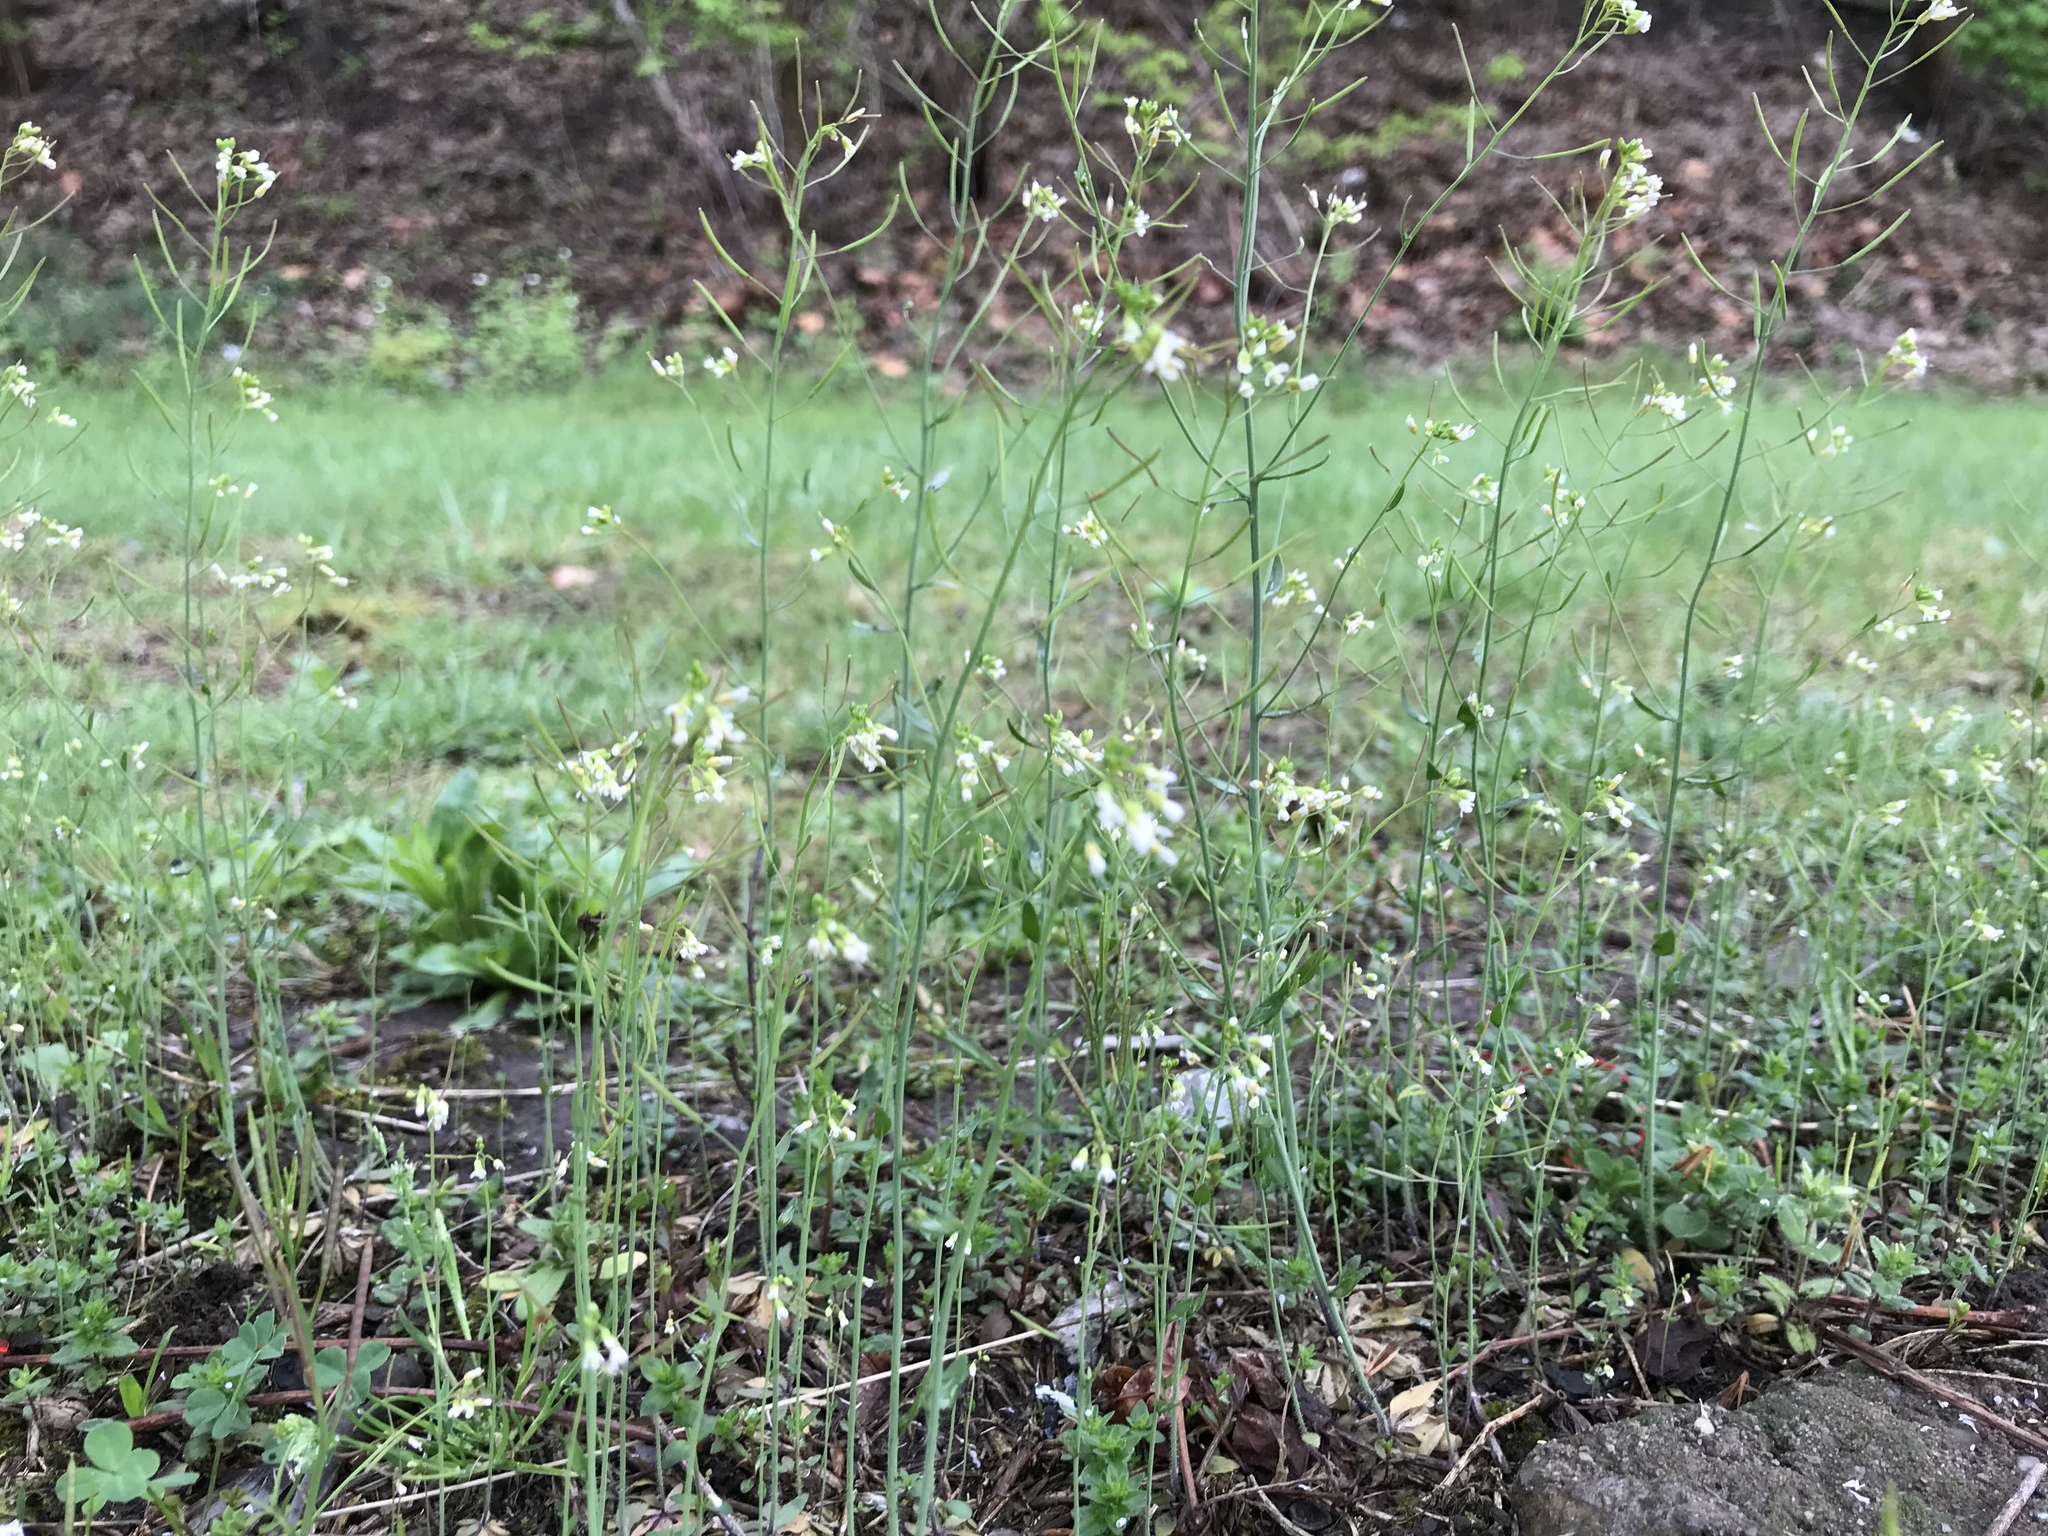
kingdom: Plantae
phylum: Tracheophyta
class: Magnoliopsida
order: Brassicales
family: Brassicaceae
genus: Arabidopsis
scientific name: Arabidopsis thaliana
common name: Thale cress
